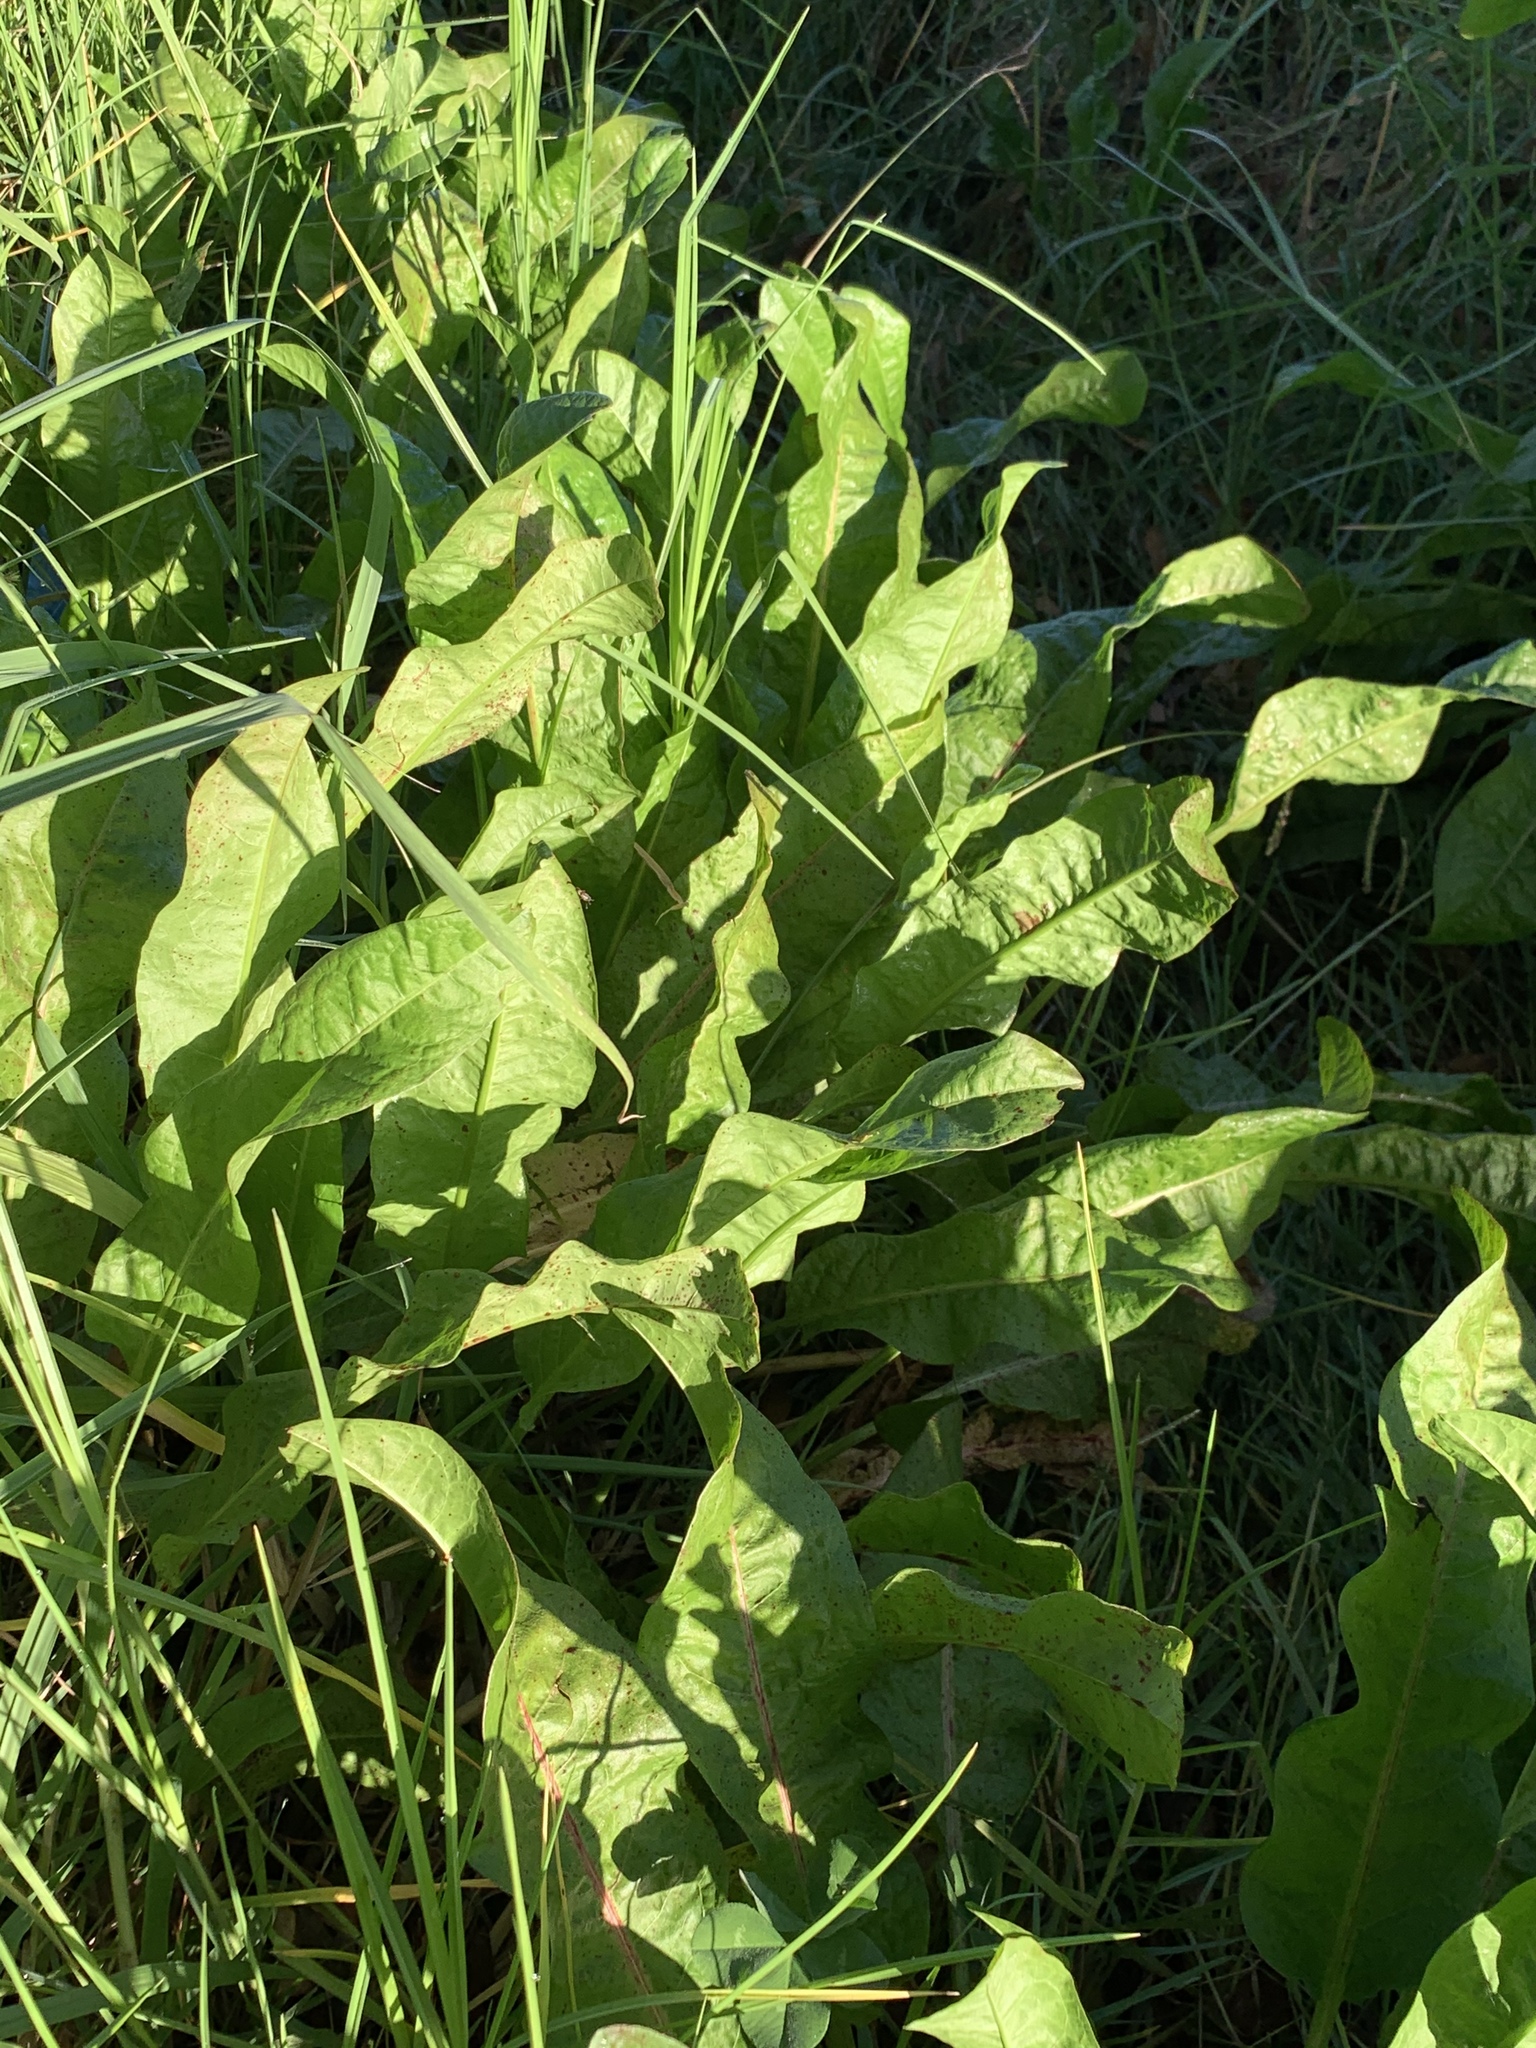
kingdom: Plantae
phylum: Tracheophyta
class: Magnoliopsida
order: Caryophyllales
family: Polygonaceae
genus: Rumex
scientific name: Rumex crispus
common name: Curled dock
